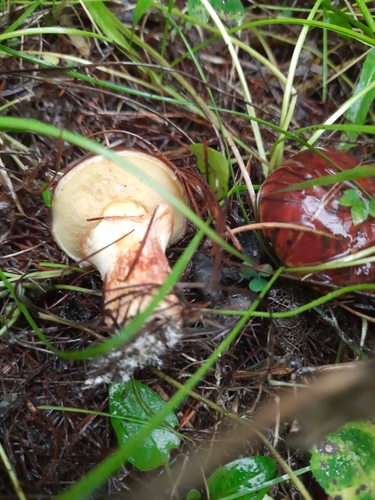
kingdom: Fungi
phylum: Basidiomycota
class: Agaricomycetes
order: Boletales
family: Suillaceae
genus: Suillus
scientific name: Suillus grevillei
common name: Larch bolete
